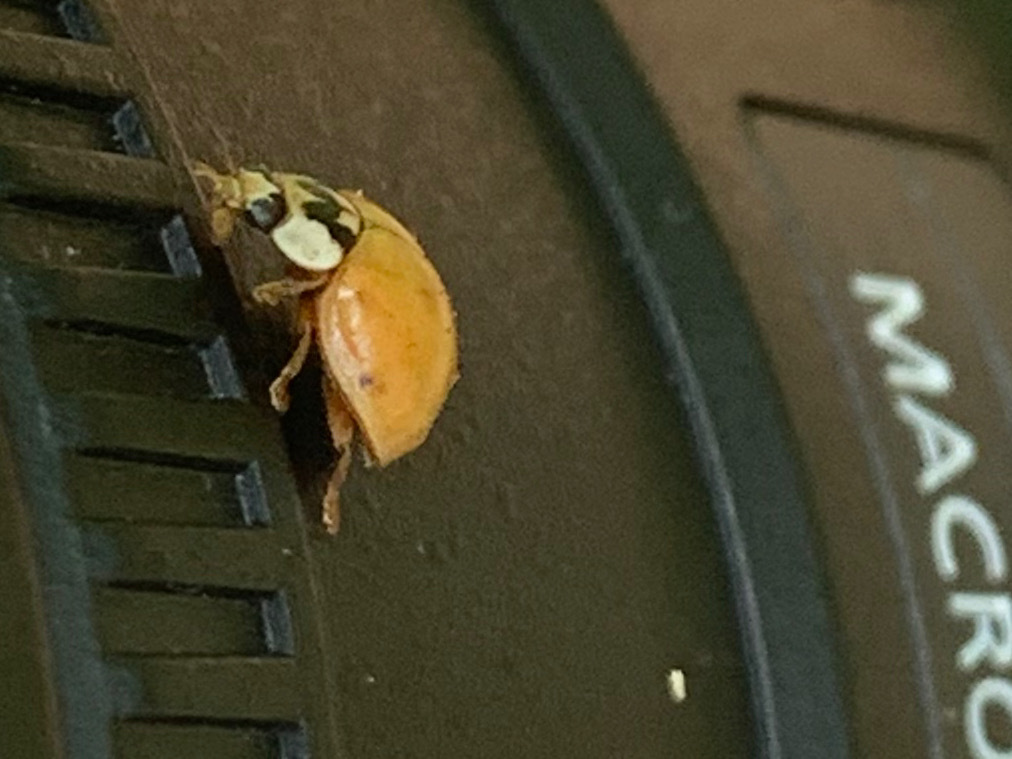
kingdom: Animalia
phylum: Arthropoda
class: Insecta
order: Coleoptera
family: Coccinellidae
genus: Harmonia
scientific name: Harmonia axyridis
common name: Harlequin ladybird
